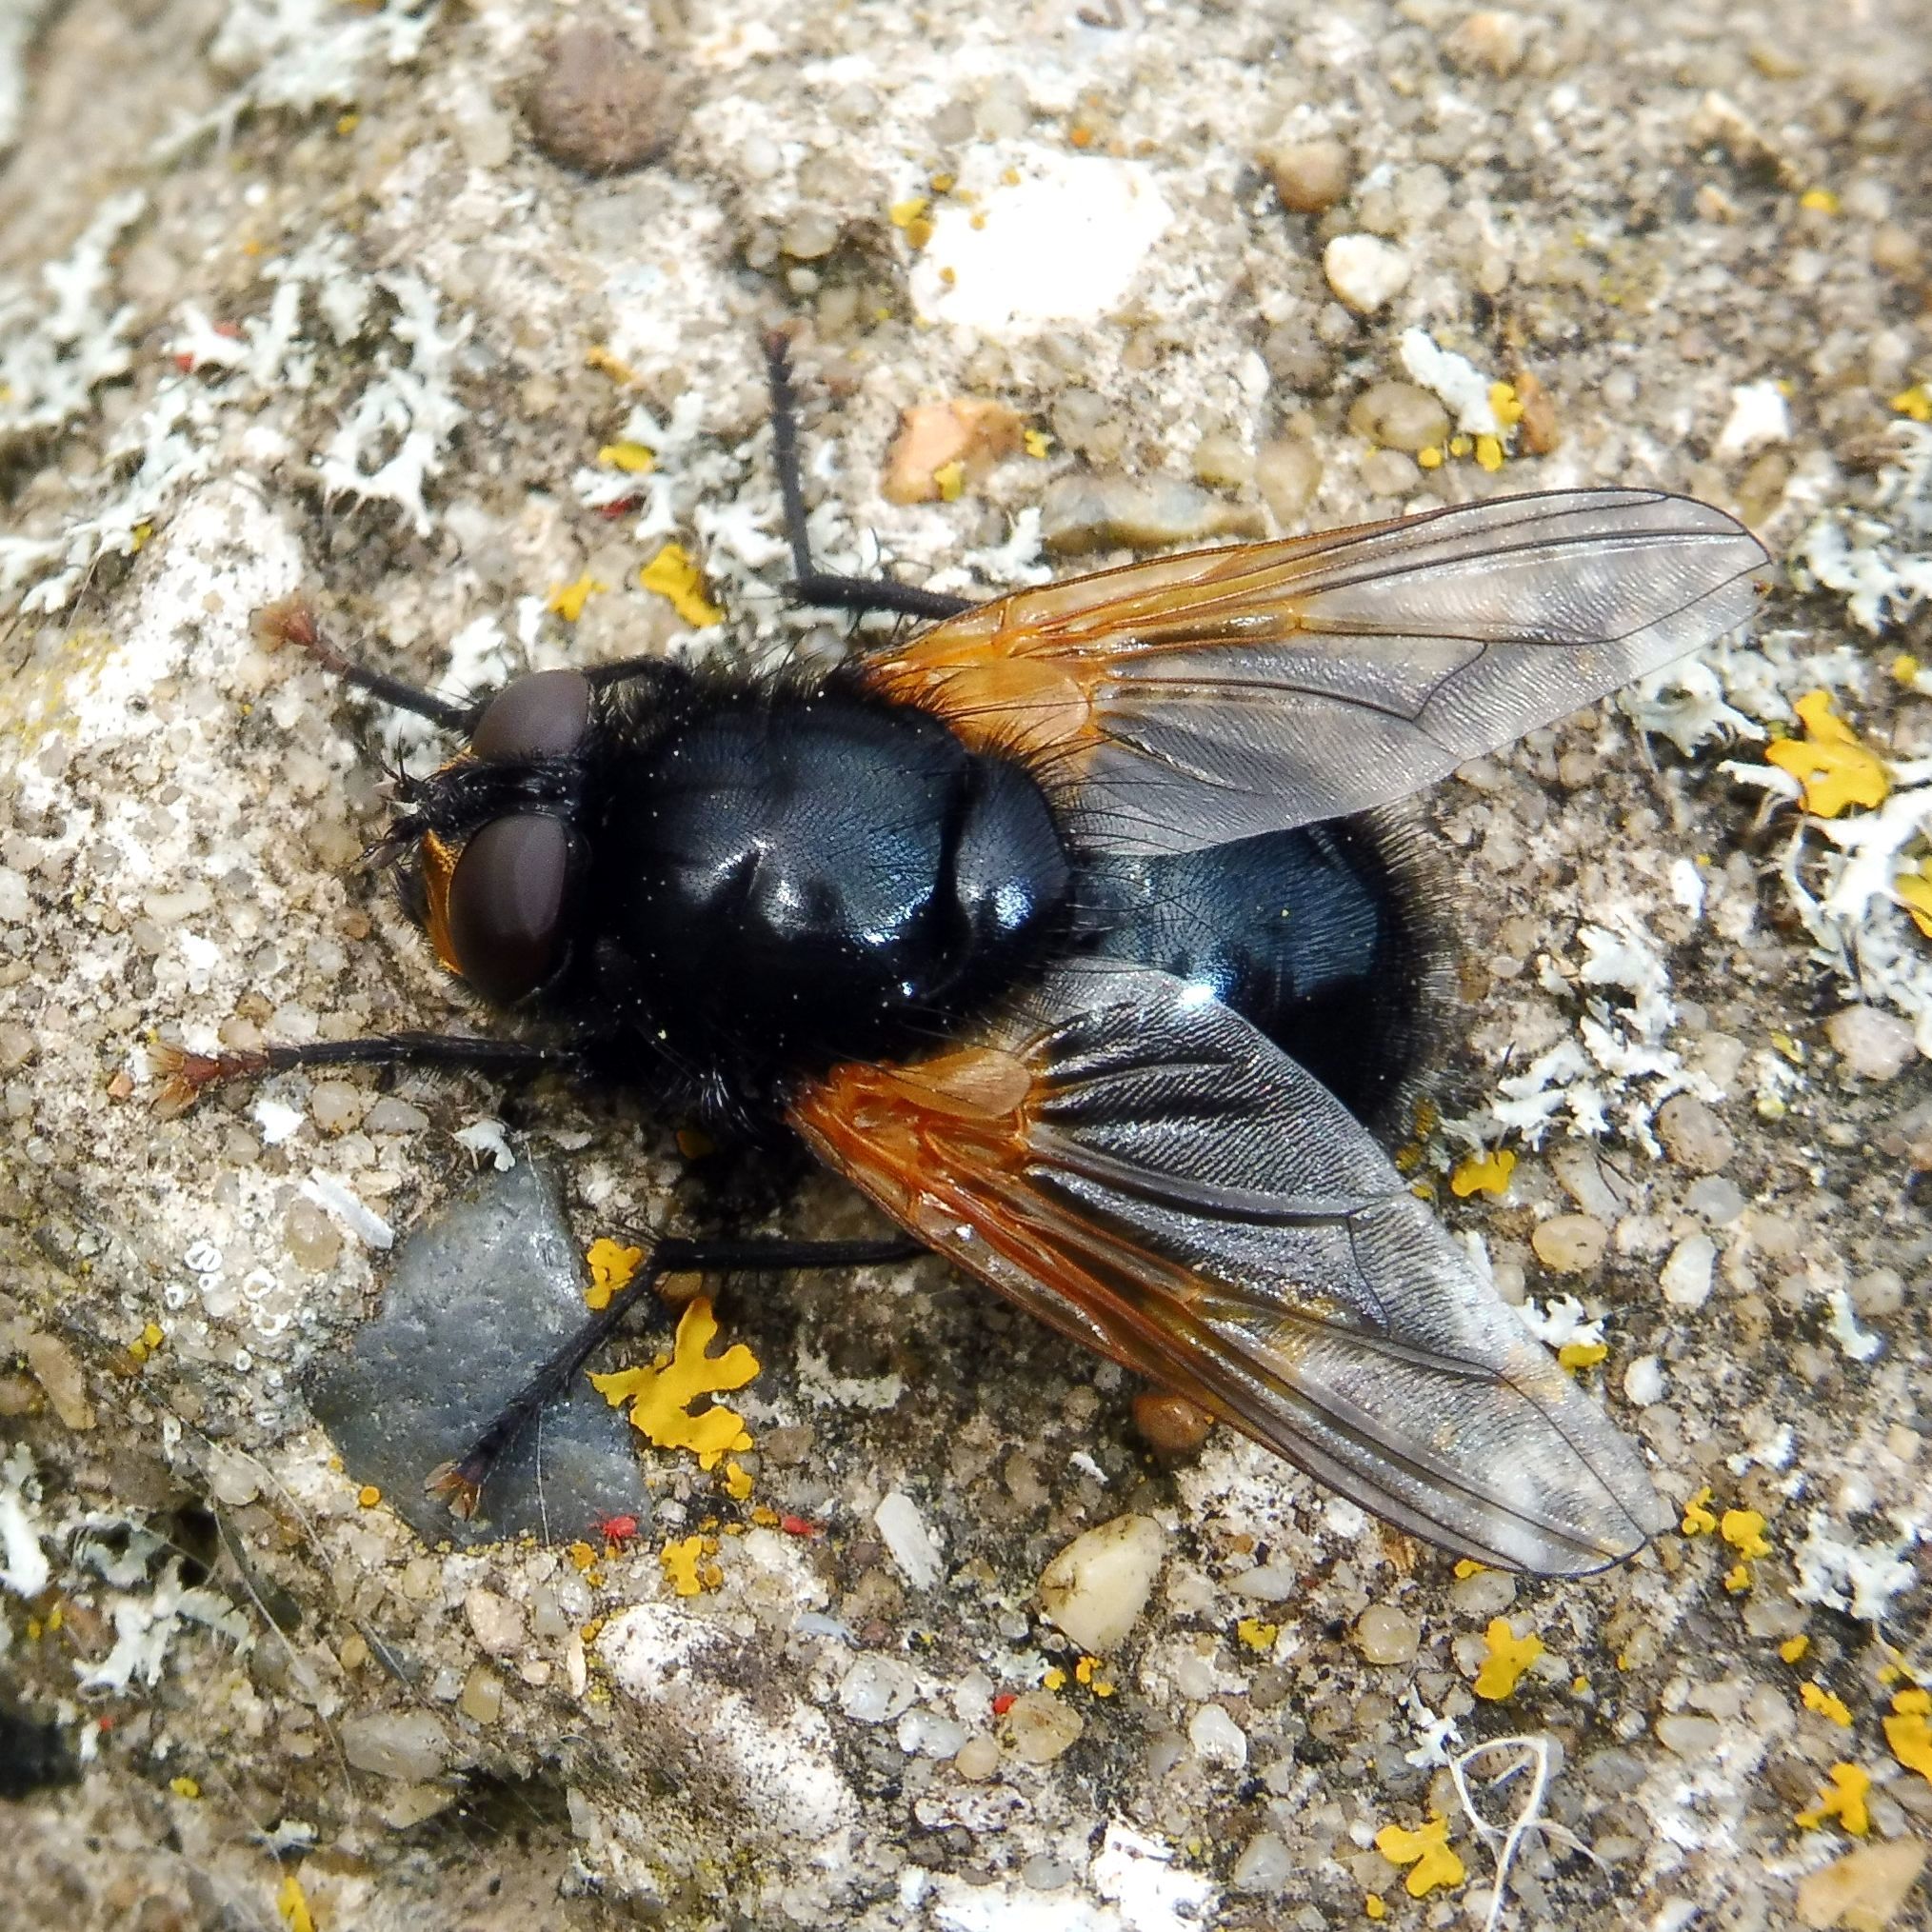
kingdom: Animalia
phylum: Arthropoda
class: Insecta
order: Diptera
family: Muscidae
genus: Mesembrina
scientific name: Mesembrina meridiana
